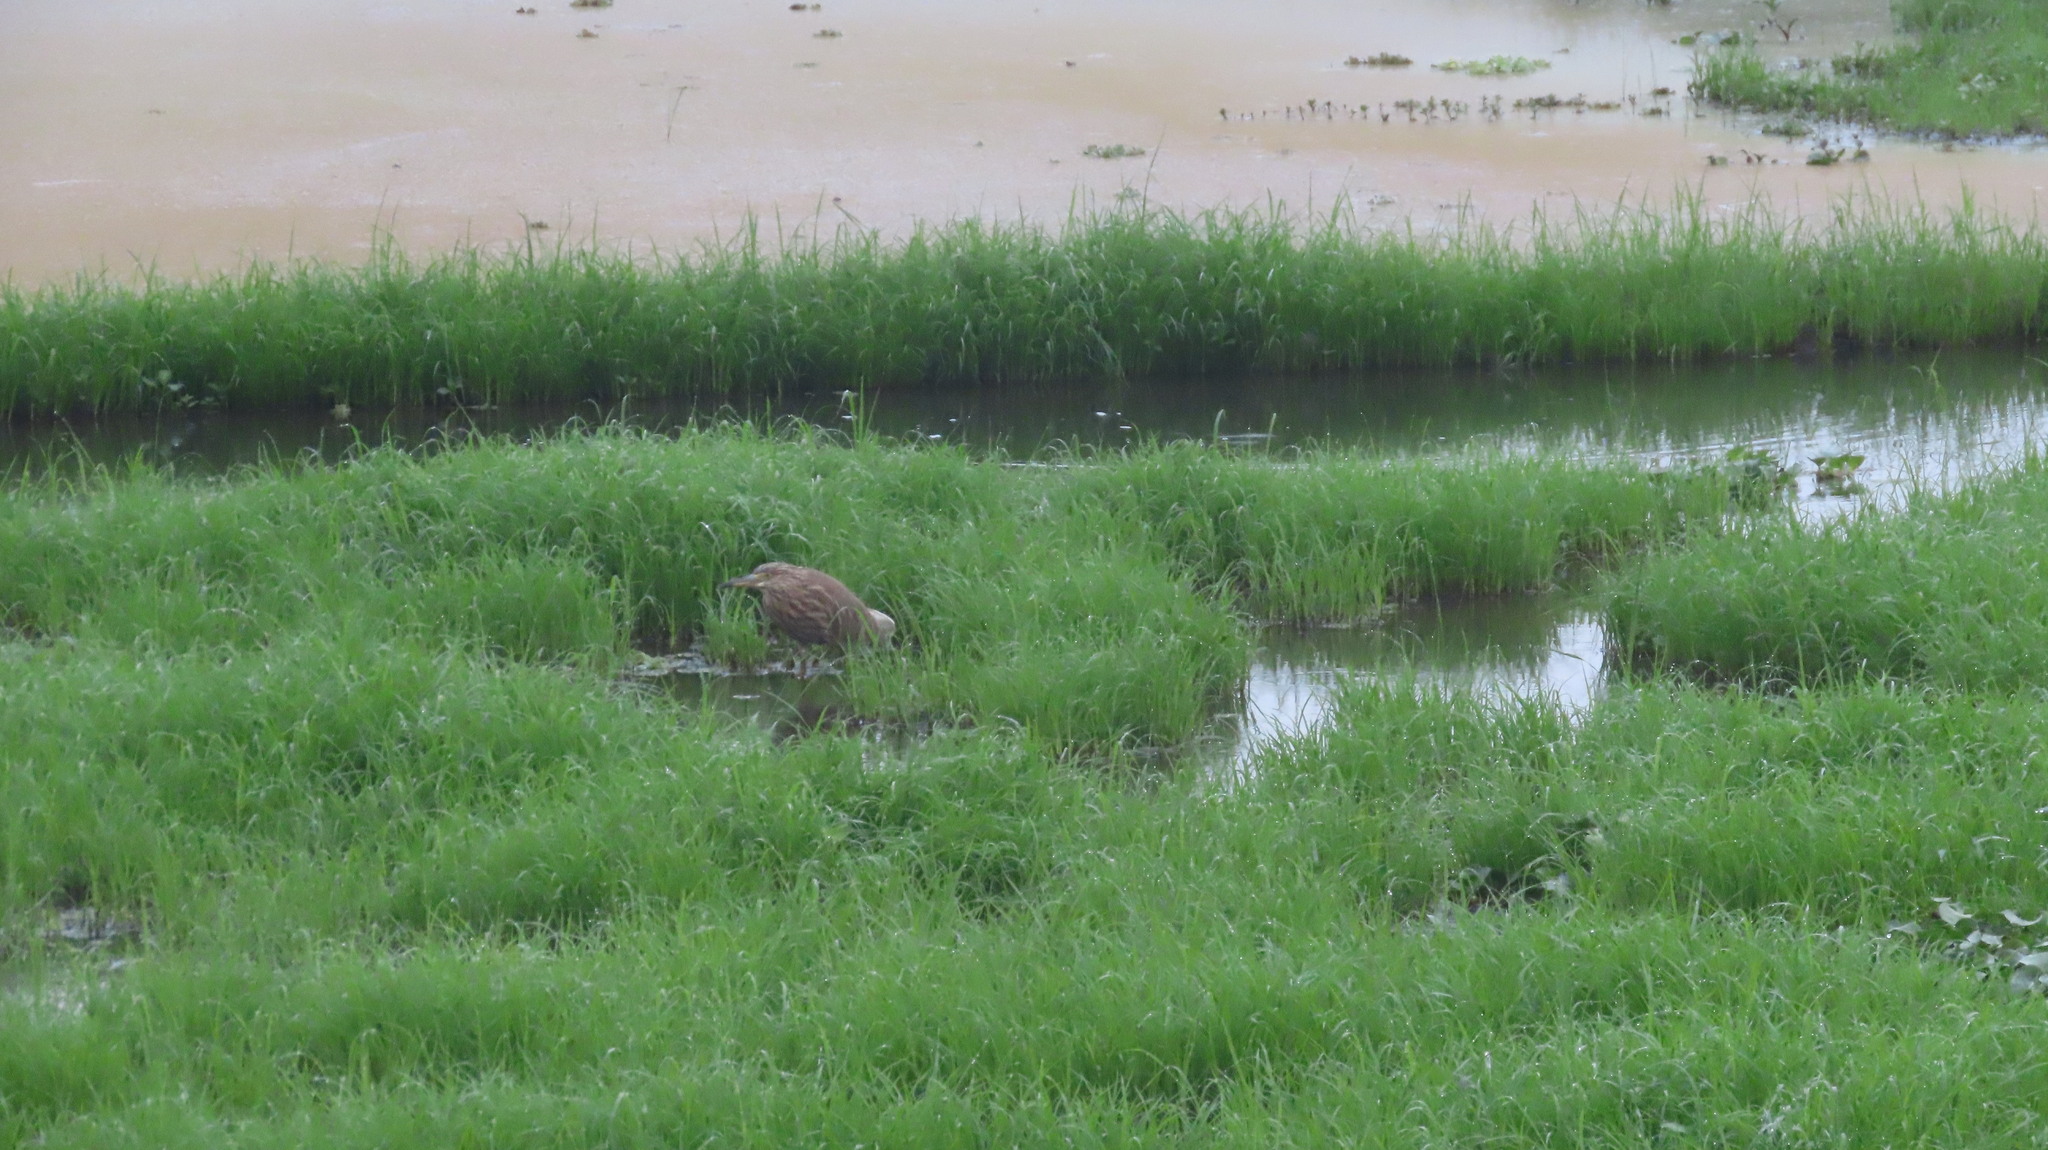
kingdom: Animalia
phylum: Chordata
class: Aves
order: Pelecaniformes
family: Ardeidae
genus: Ardeola
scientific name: Ardeola grayii
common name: Indian pond heron
